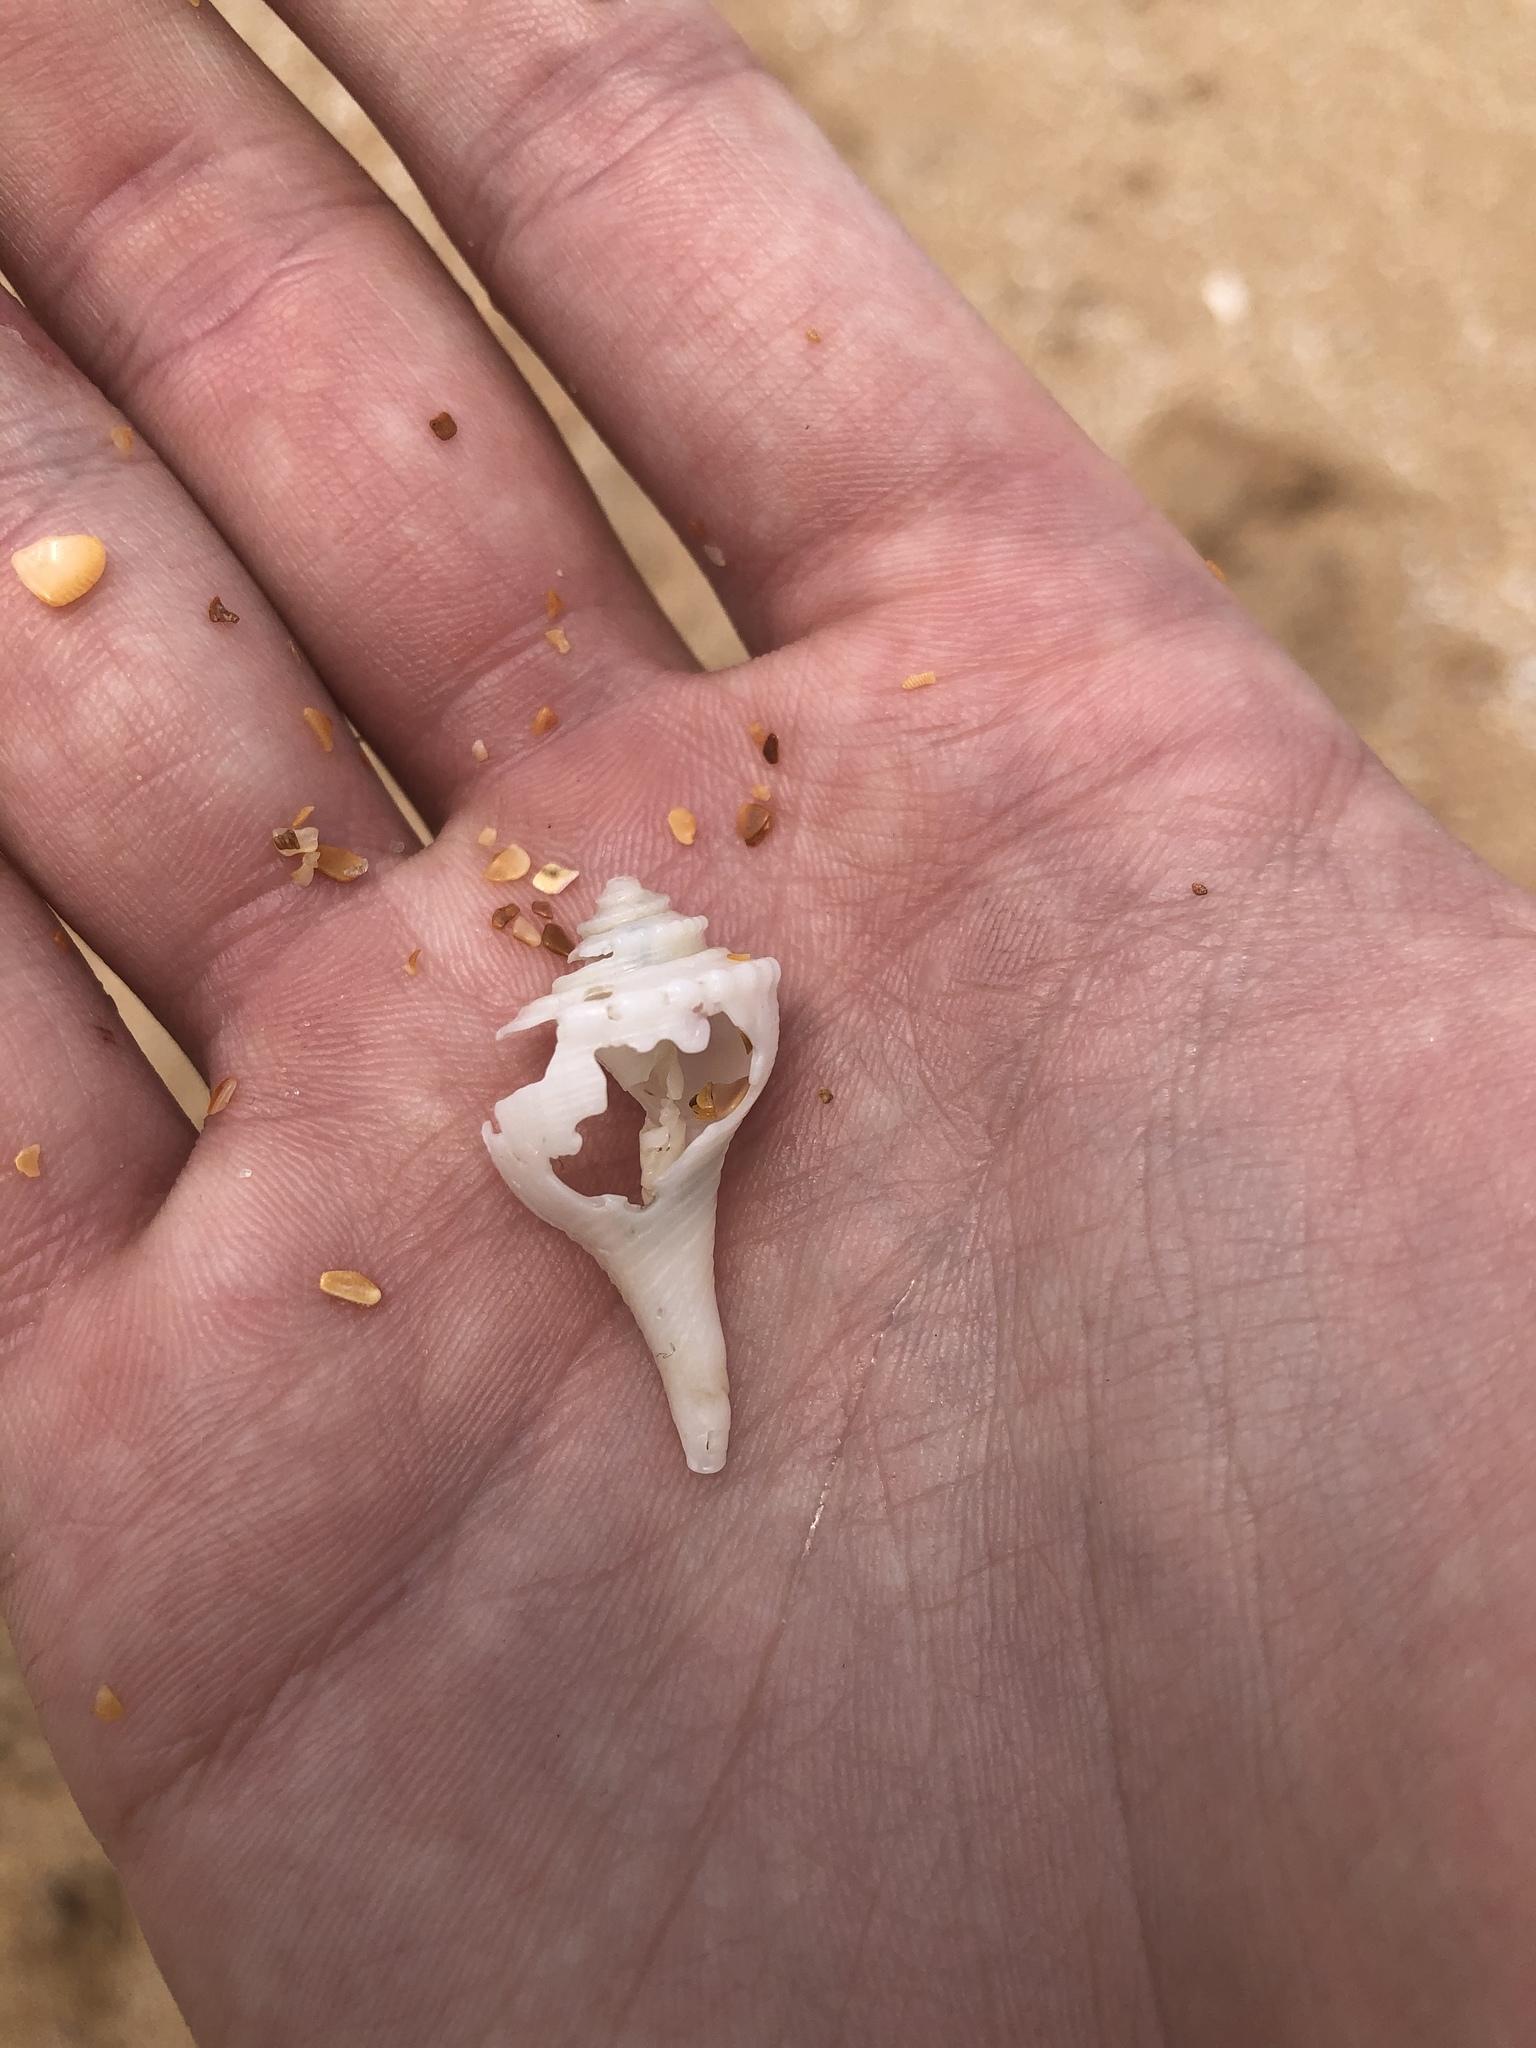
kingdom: Animalia
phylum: Mollusca
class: Gastropoda
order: Neogastropoda
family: Busyconidae
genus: Busycotypus
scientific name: Busycotypus canaliculatus
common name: Channeled whelk
